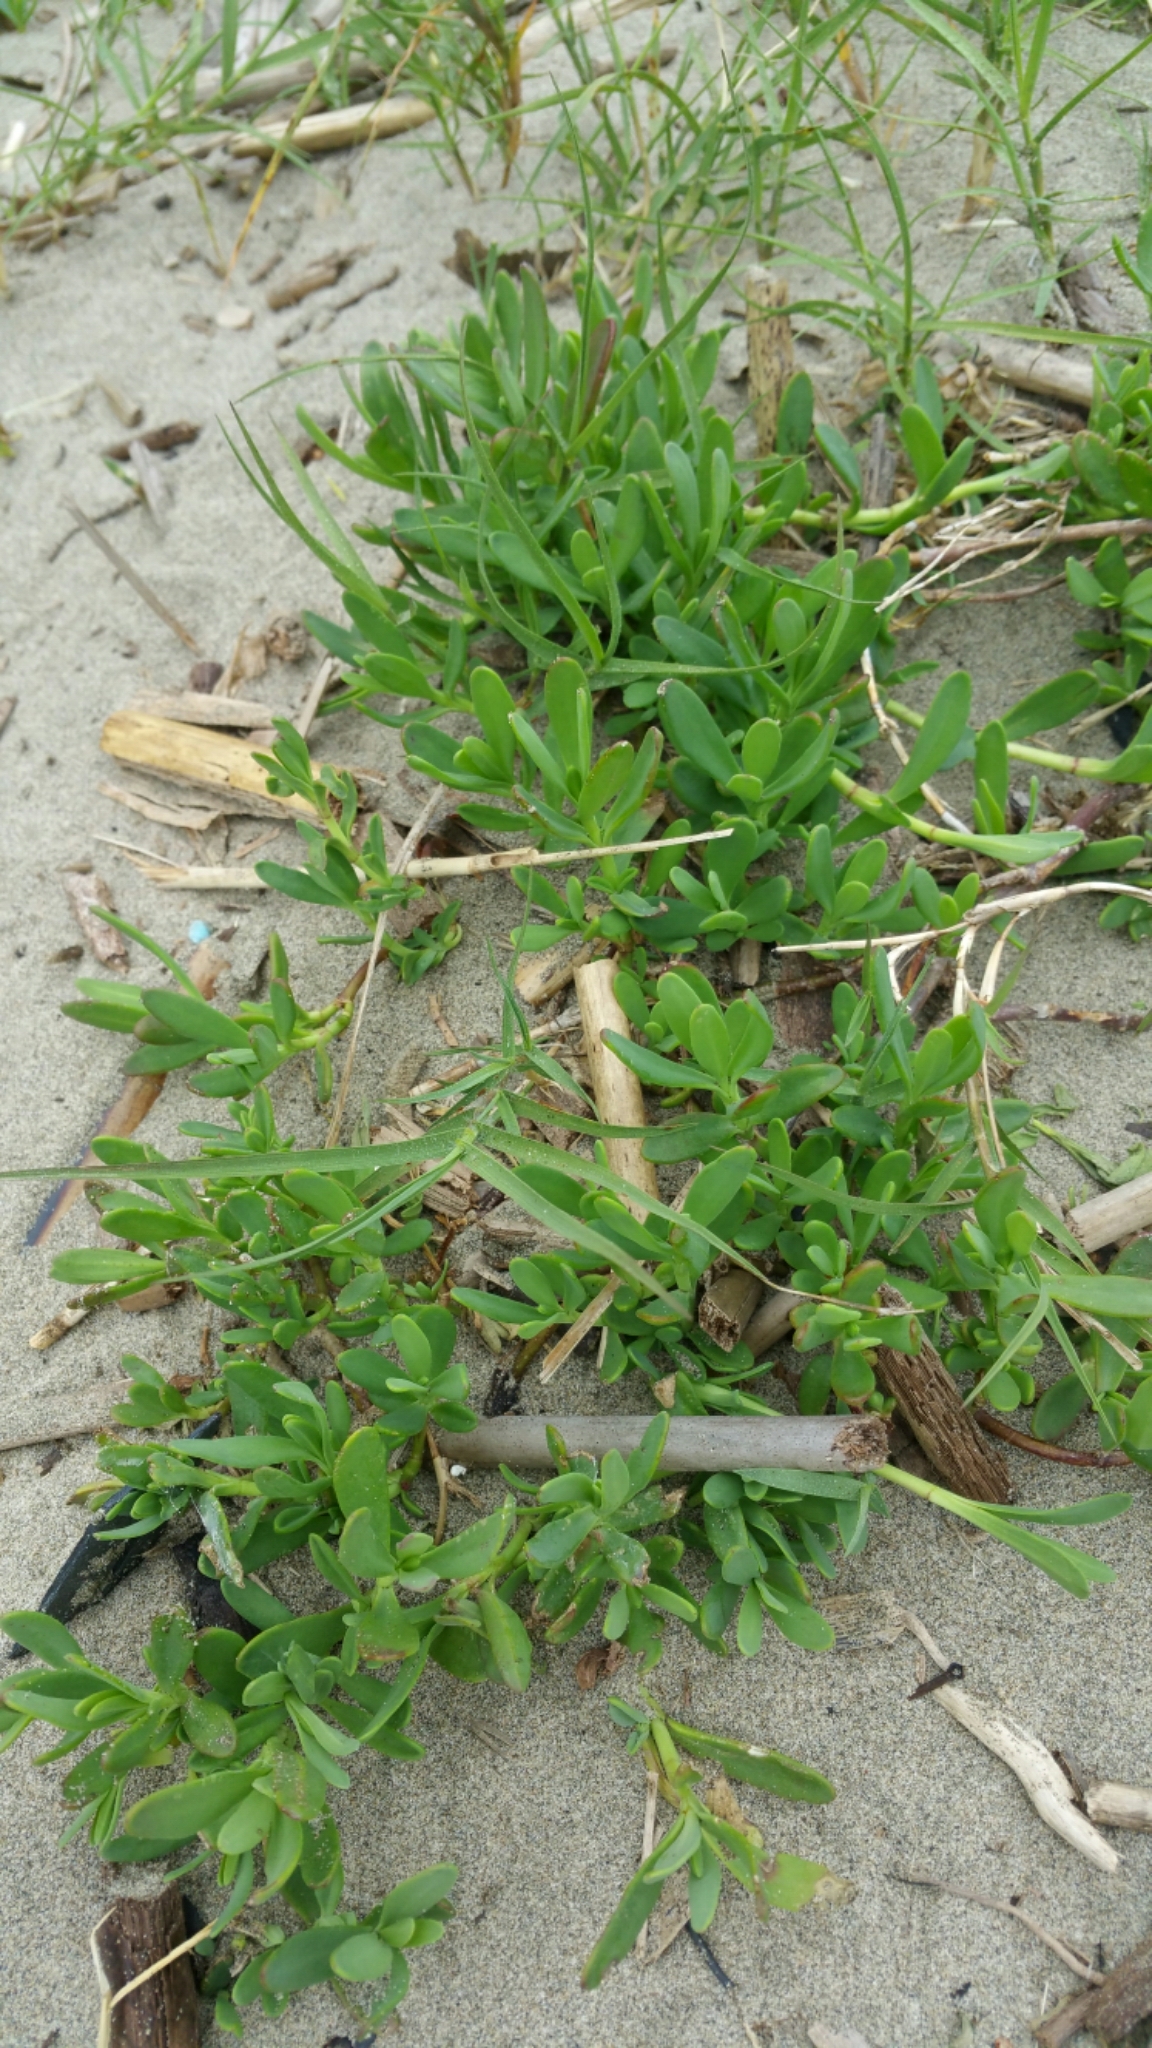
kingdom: Plantae
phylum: Tracheophyta
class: Magnoliopsida
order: Asterales
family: Asteraceae
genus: Jaumea
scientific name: Jaumea carnosa
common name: Fleshy jaumea
